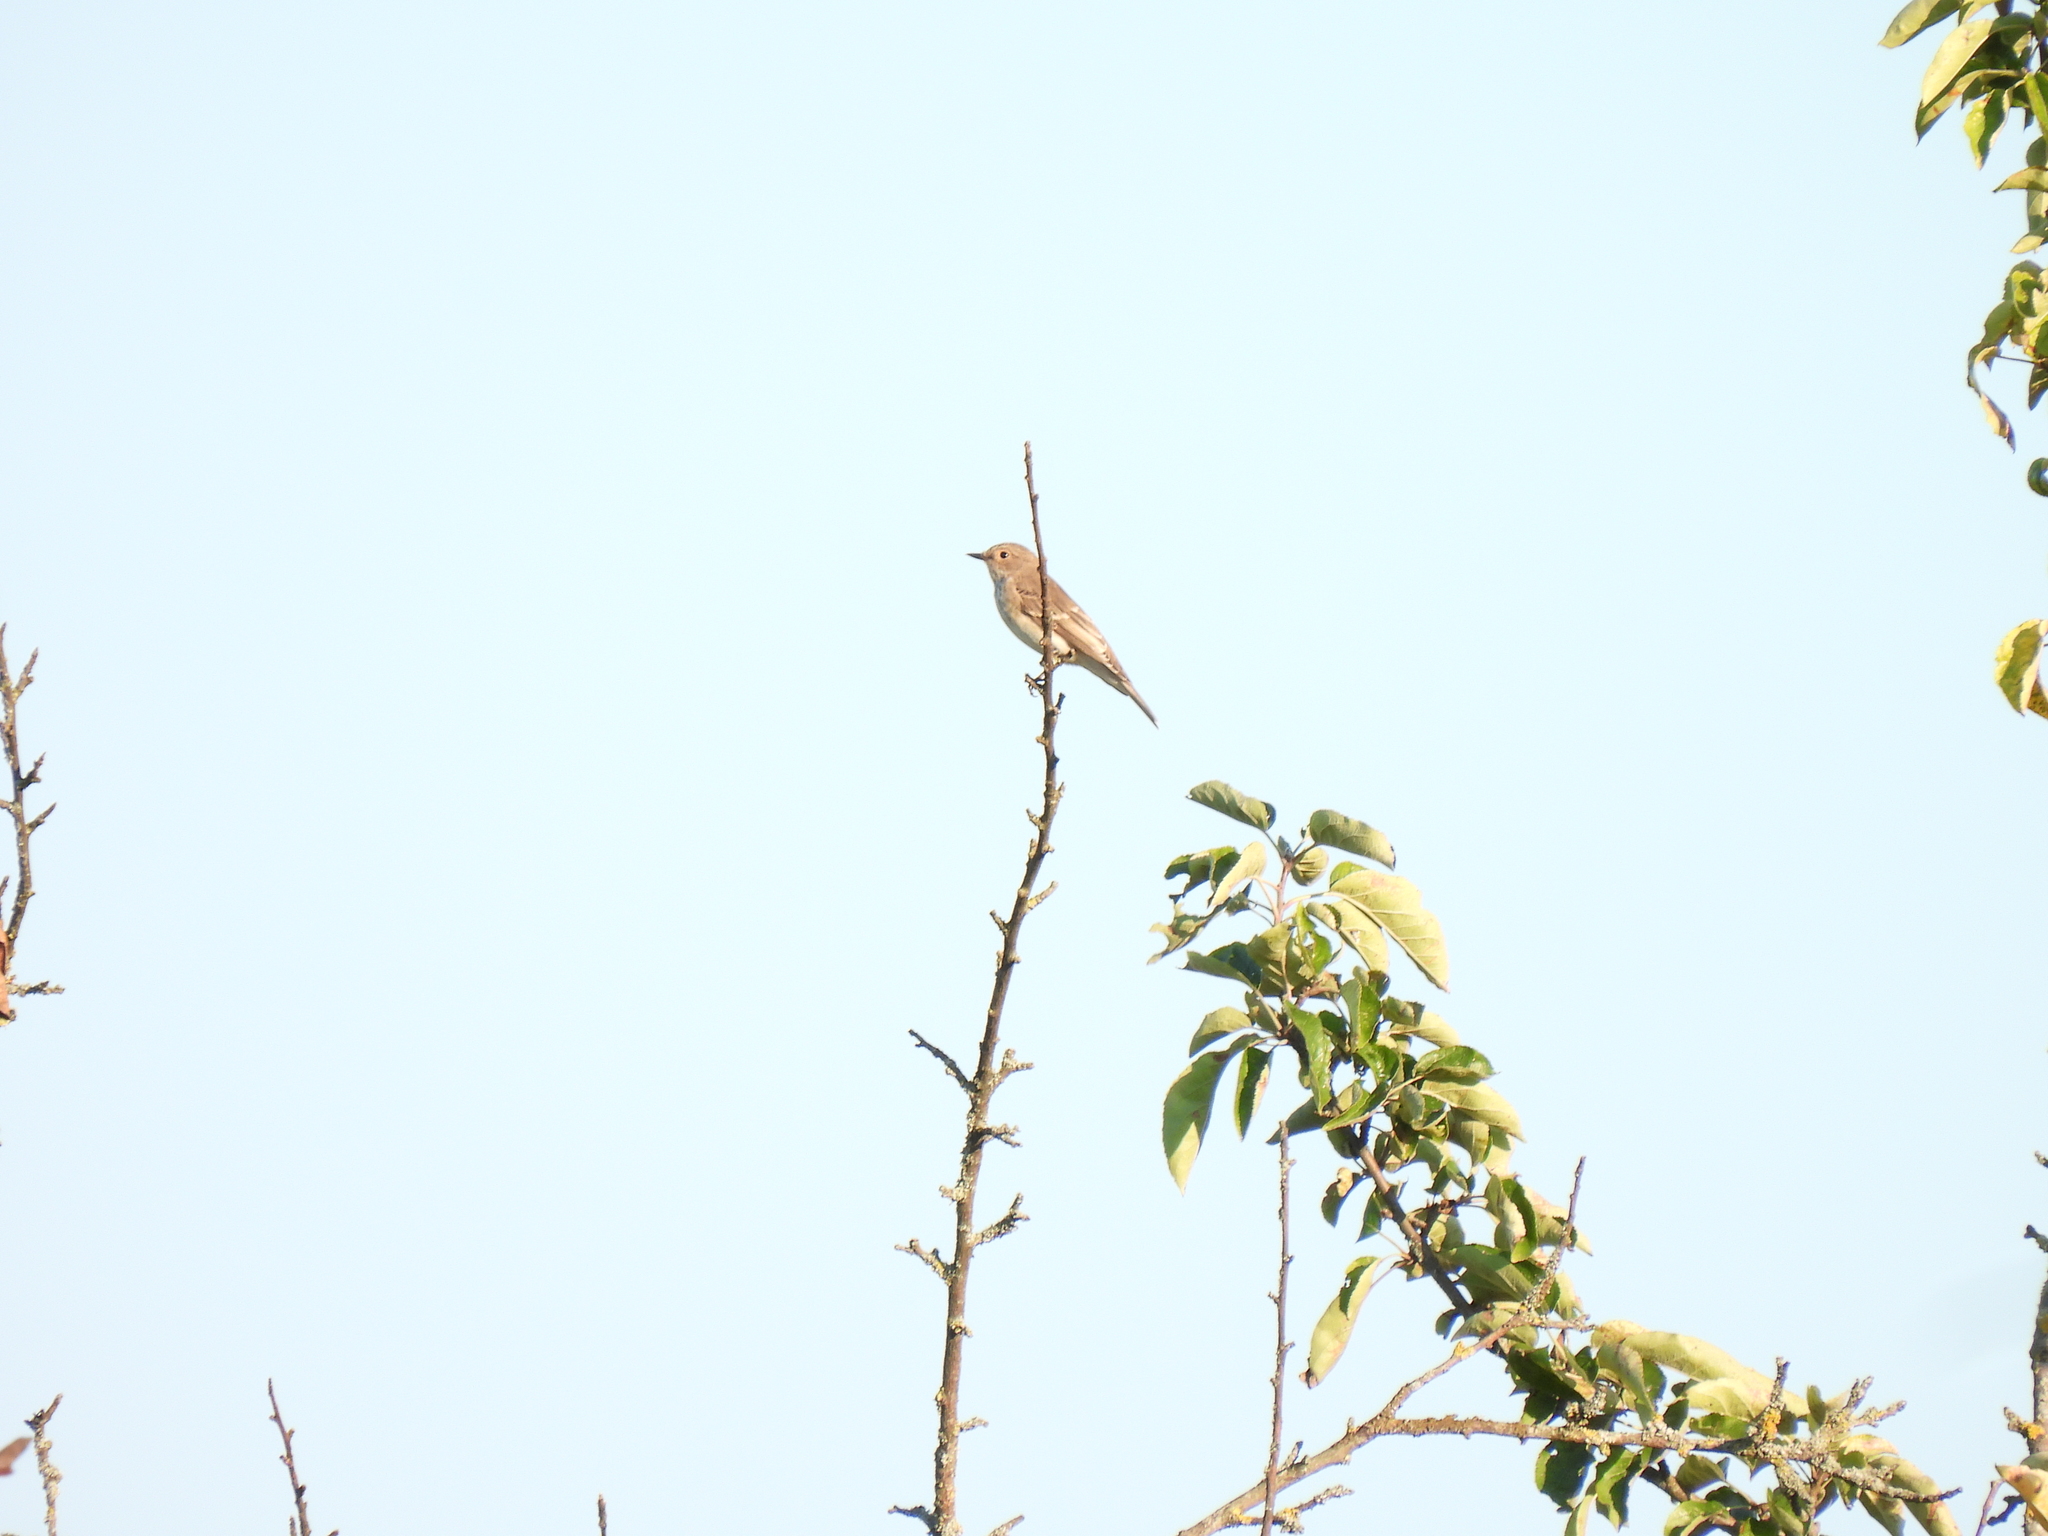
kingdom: Animalia
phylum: Chordata
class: Aves
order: Passeriformes
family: Muscicapidae
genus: Muscicapa
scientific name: Muscicapa striata
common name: Spotted flycatcher
